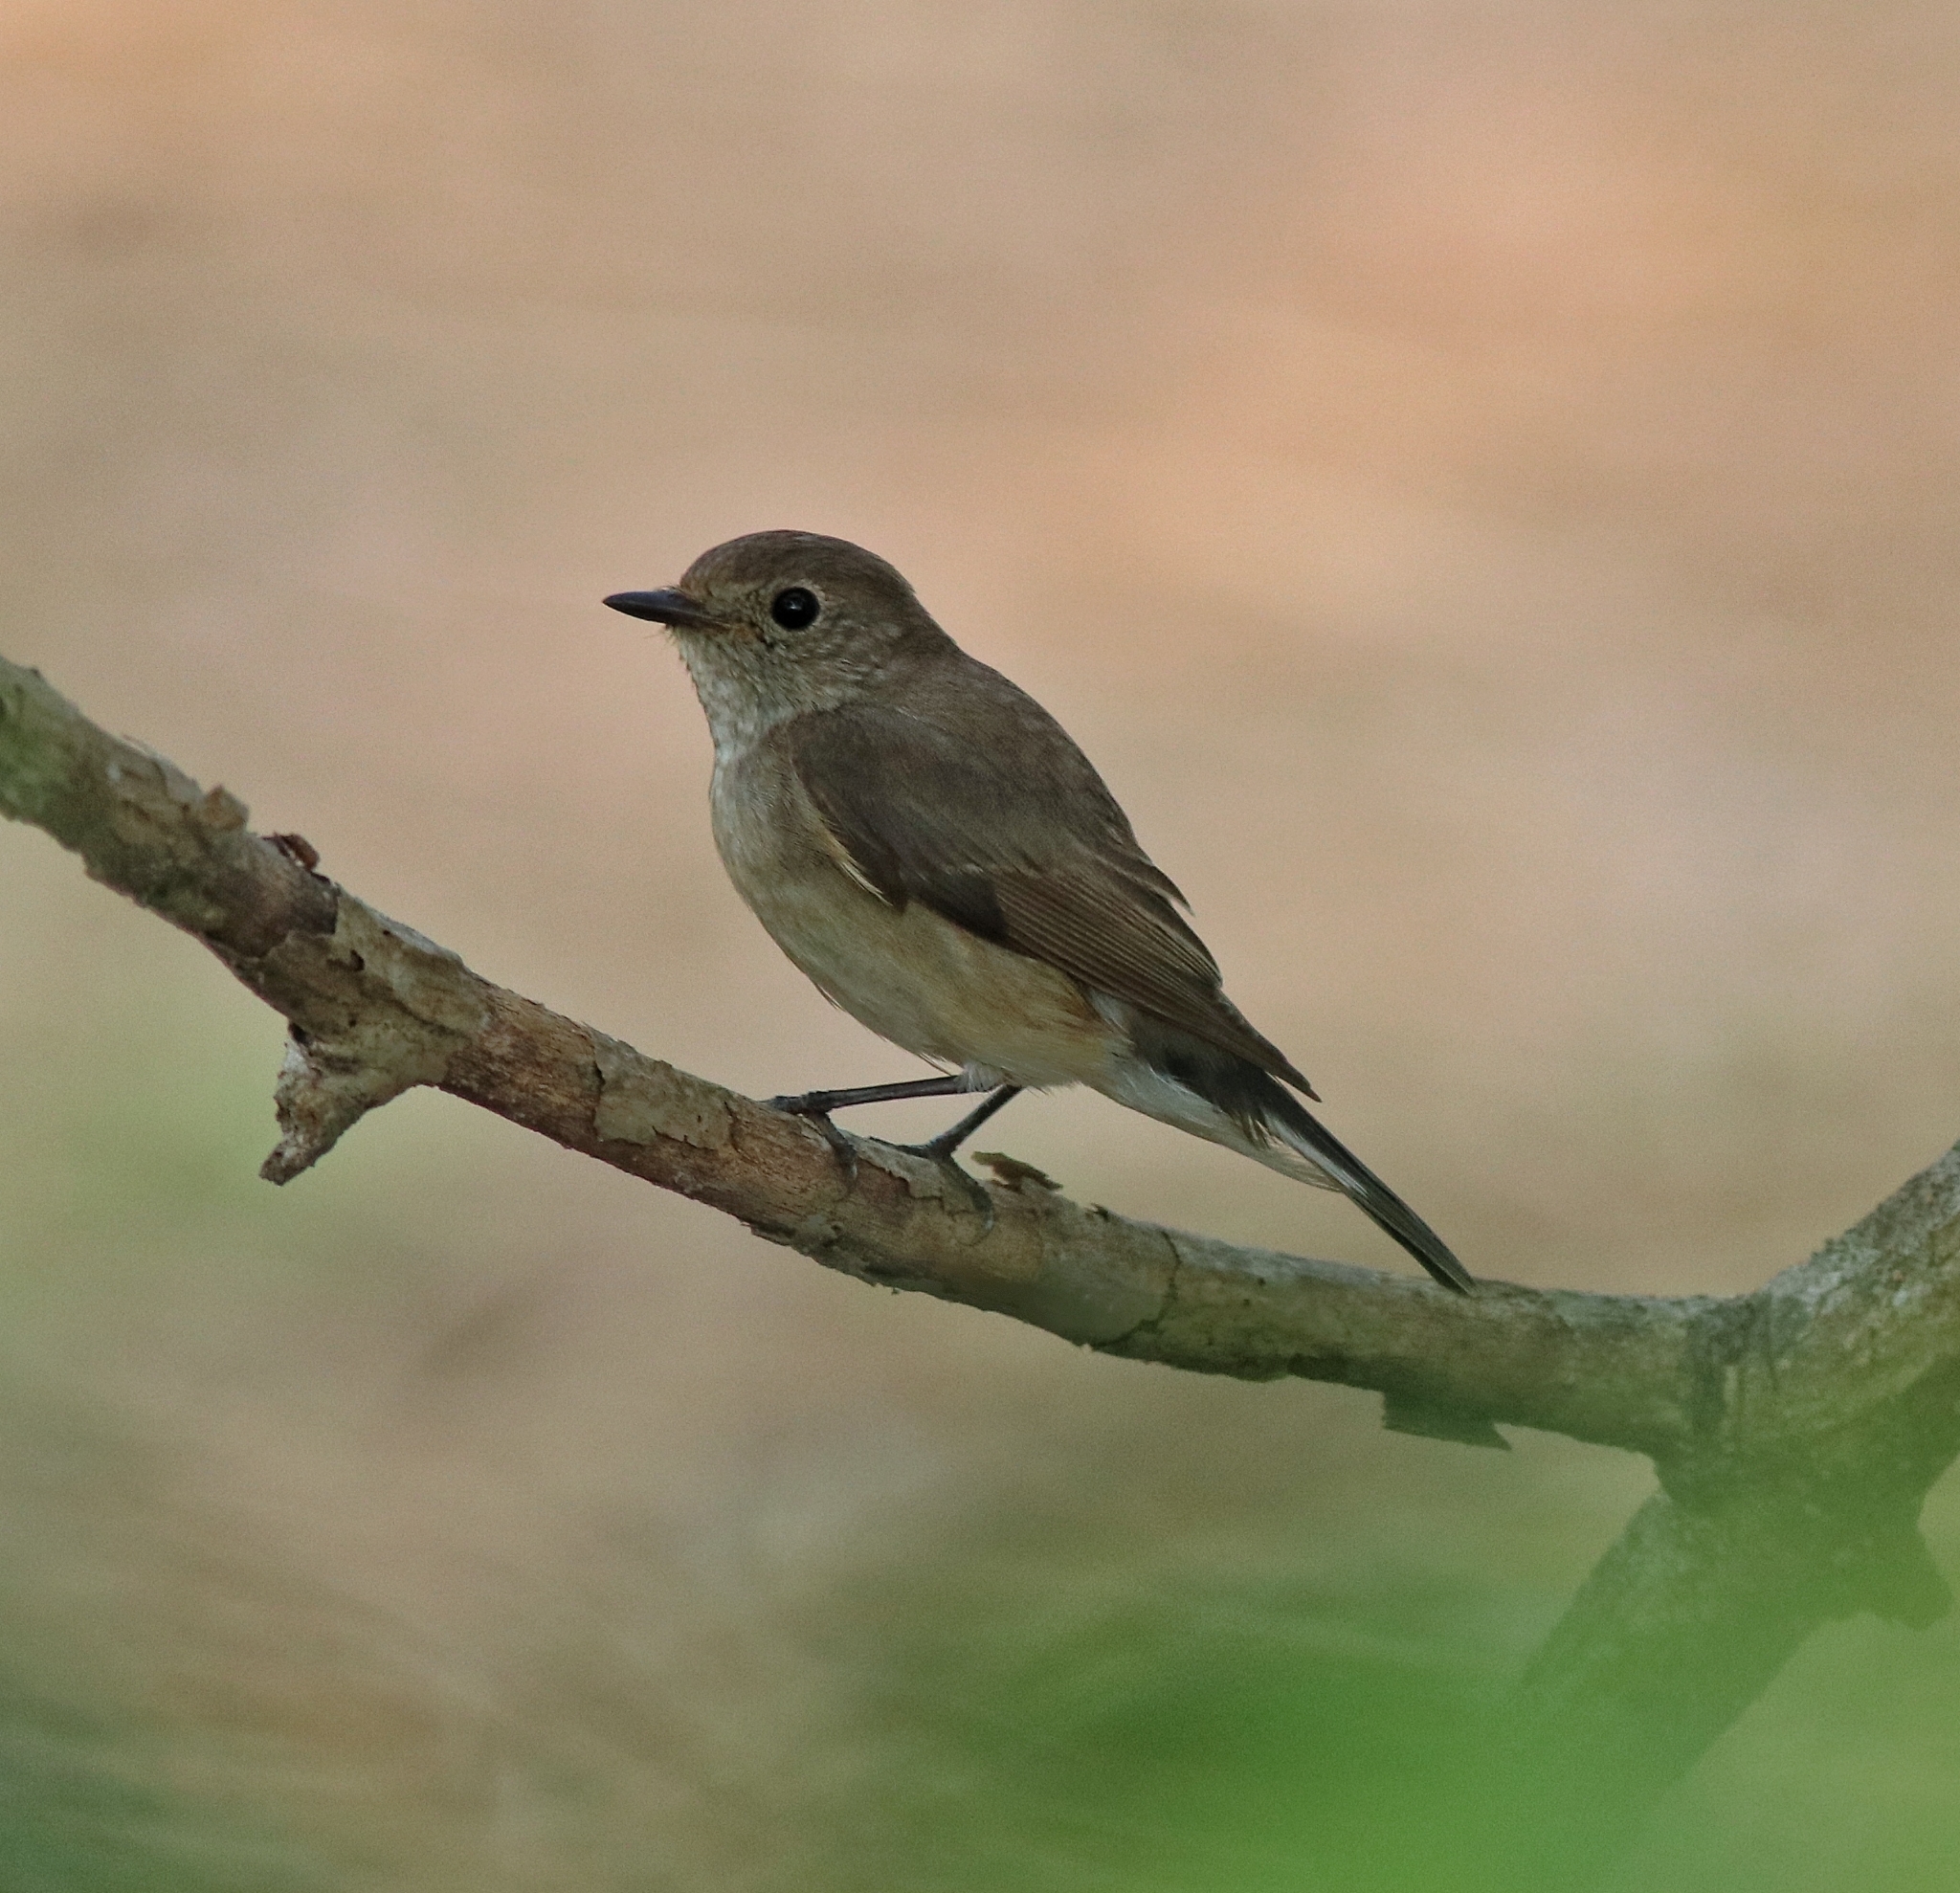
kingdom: Animalia
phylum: Chordata
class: Aves
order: Passeriformes
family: Muscicapidae
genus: Ficedula
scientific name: Ficedula albicilla
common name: Taiga flycatcher
